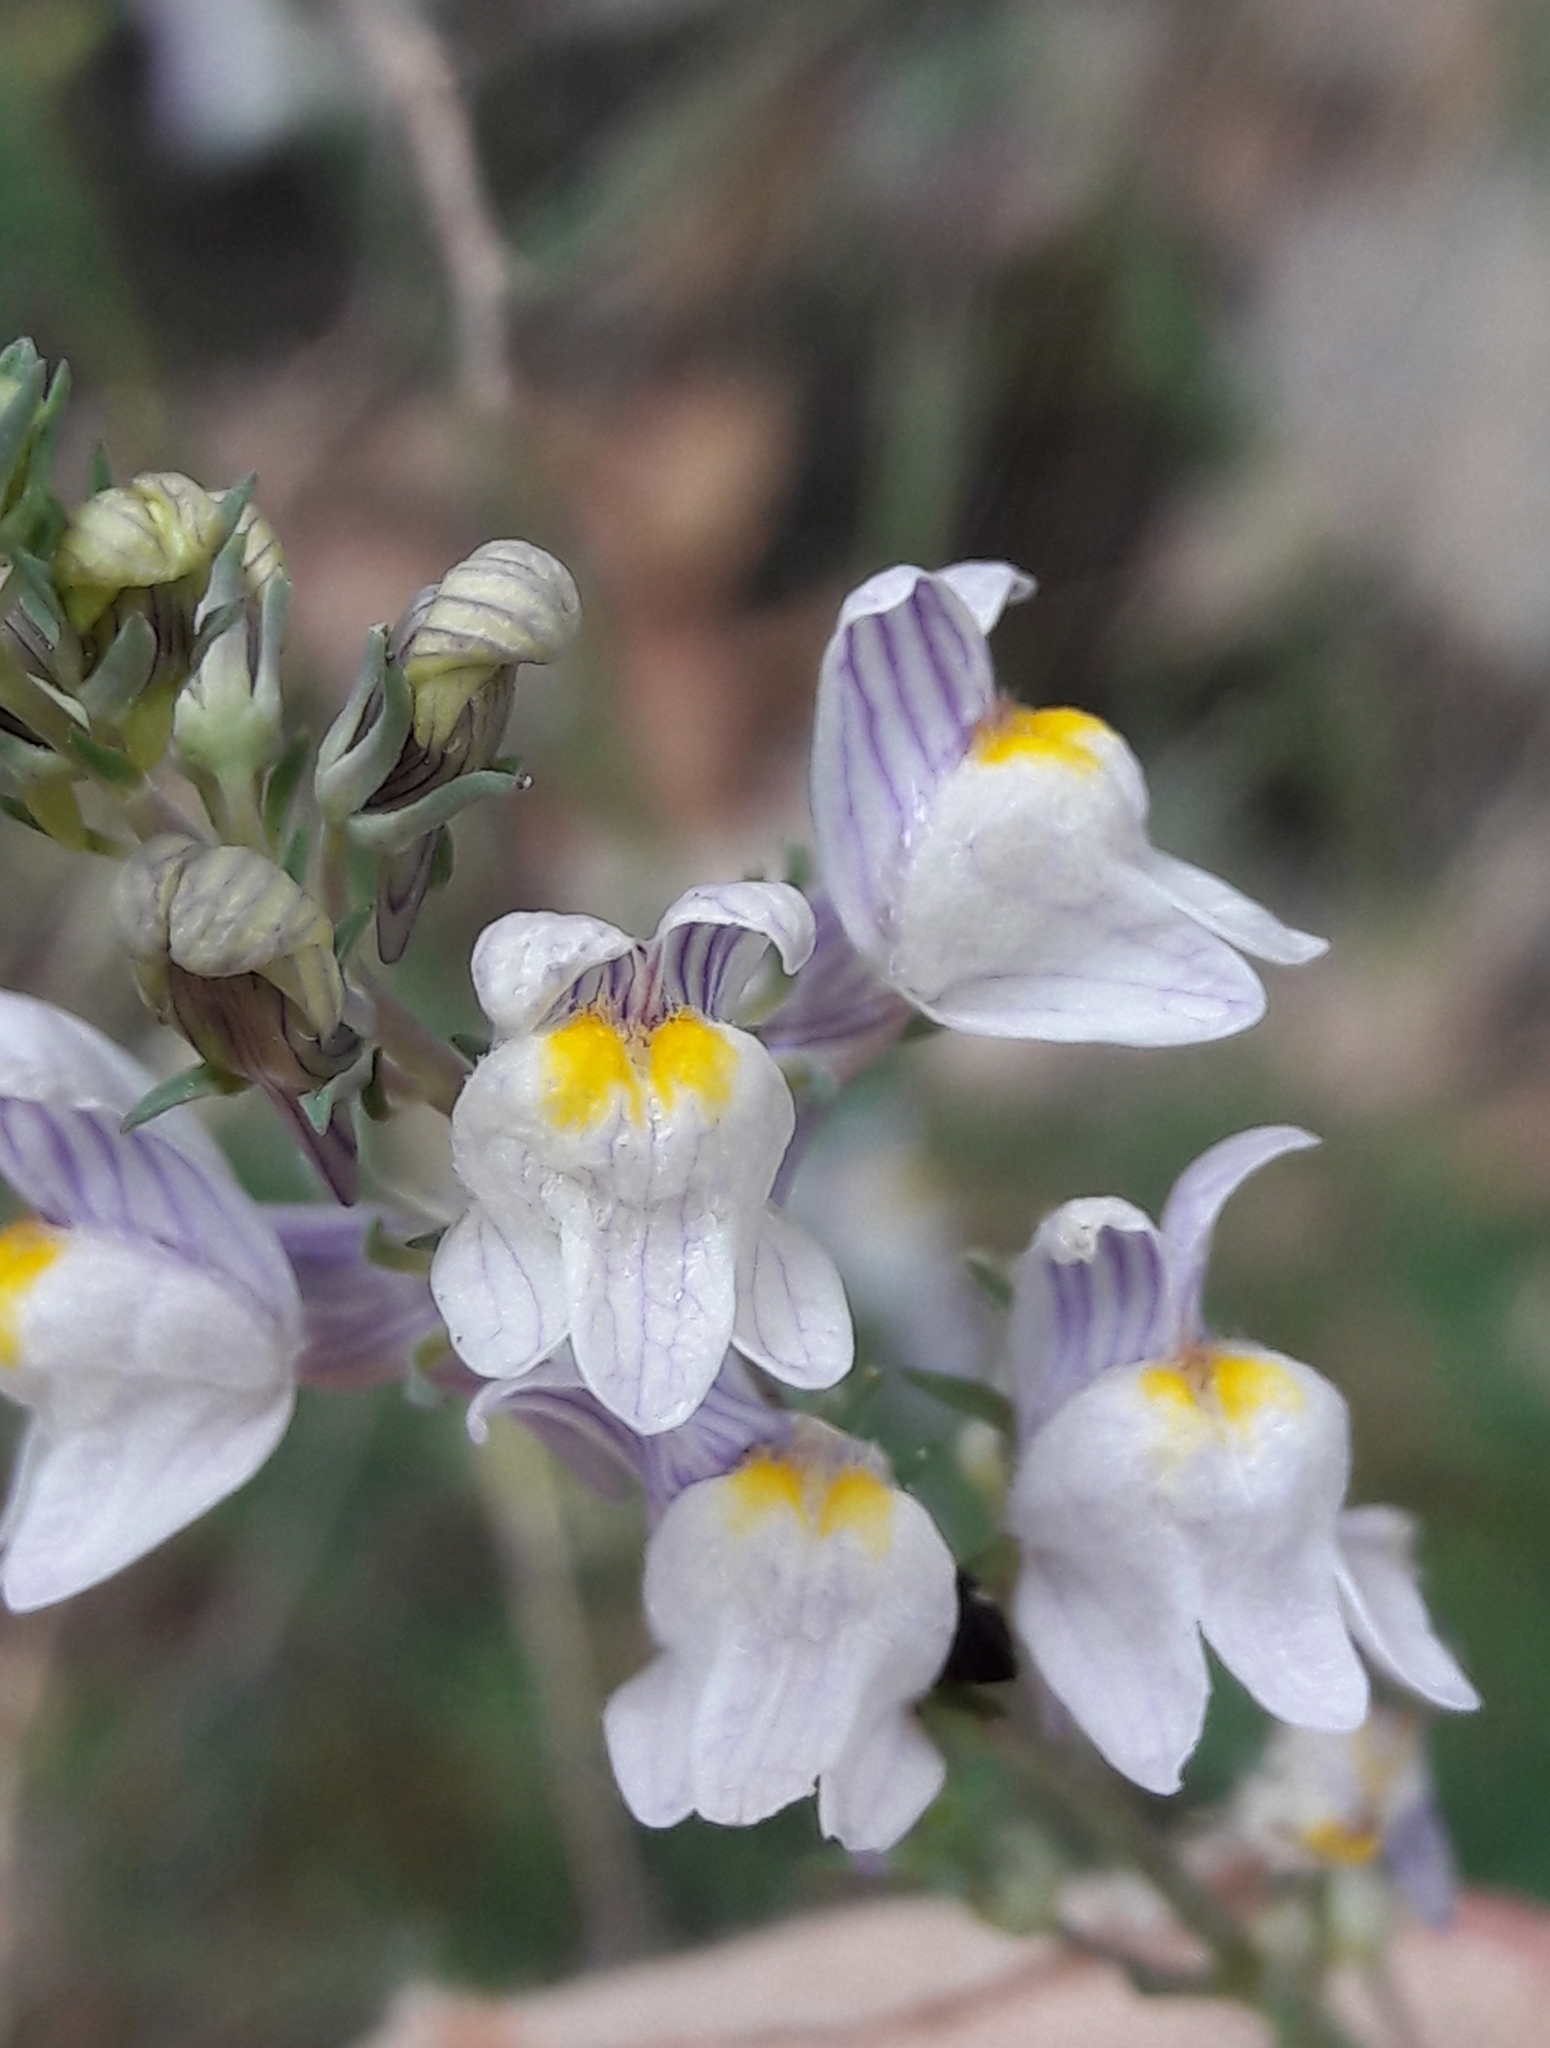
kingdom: Plantae
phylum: Tracheophyta
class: Magnoliopsida
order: Lamiales
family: Plantaginaceae
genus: Linaria
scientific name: Linaria repens
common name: Pale toadflax
